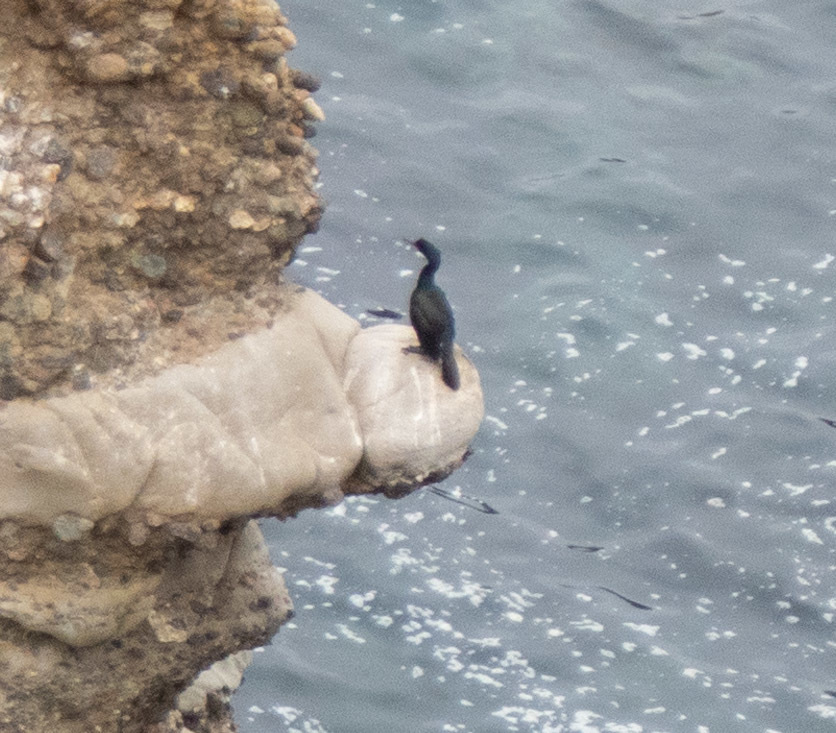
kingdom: Animalia
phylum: Chordata
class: Aves
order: Suliformes
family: Phalacrocoracidae
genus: Phalacrocorax
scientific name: Phalacrocorax pelagicus
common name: Pelagic cormorant
